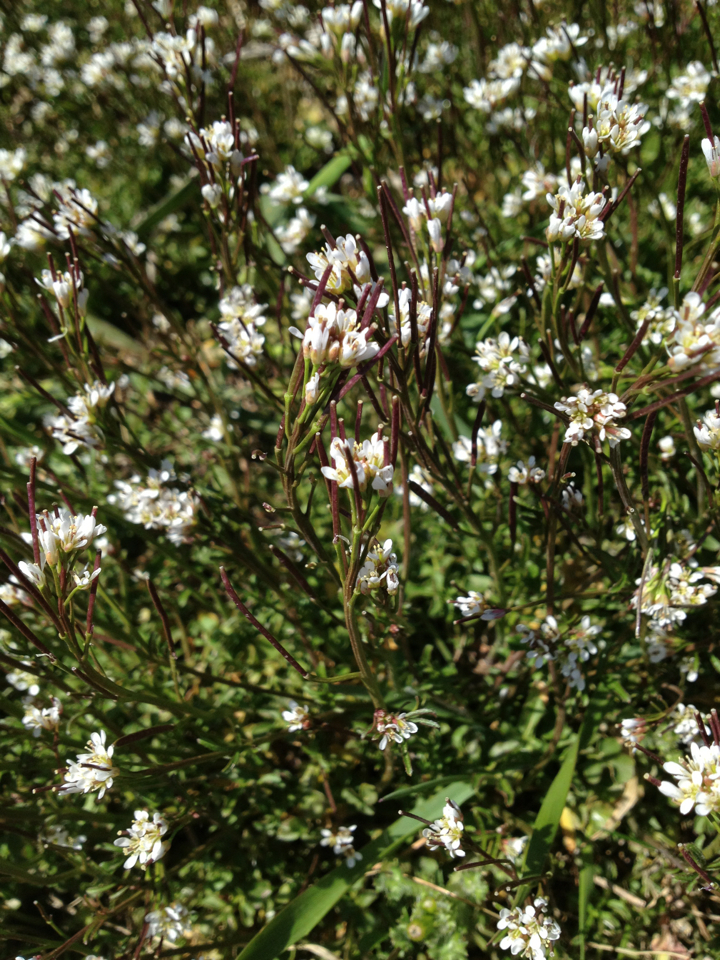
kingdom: Plantae
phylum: Tracheophyta
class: Magnoliopsida
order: Brassicales
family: Brassicaceae
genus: Cardamine
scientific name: Cardamine hirsuta
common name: Hairy bittercress
